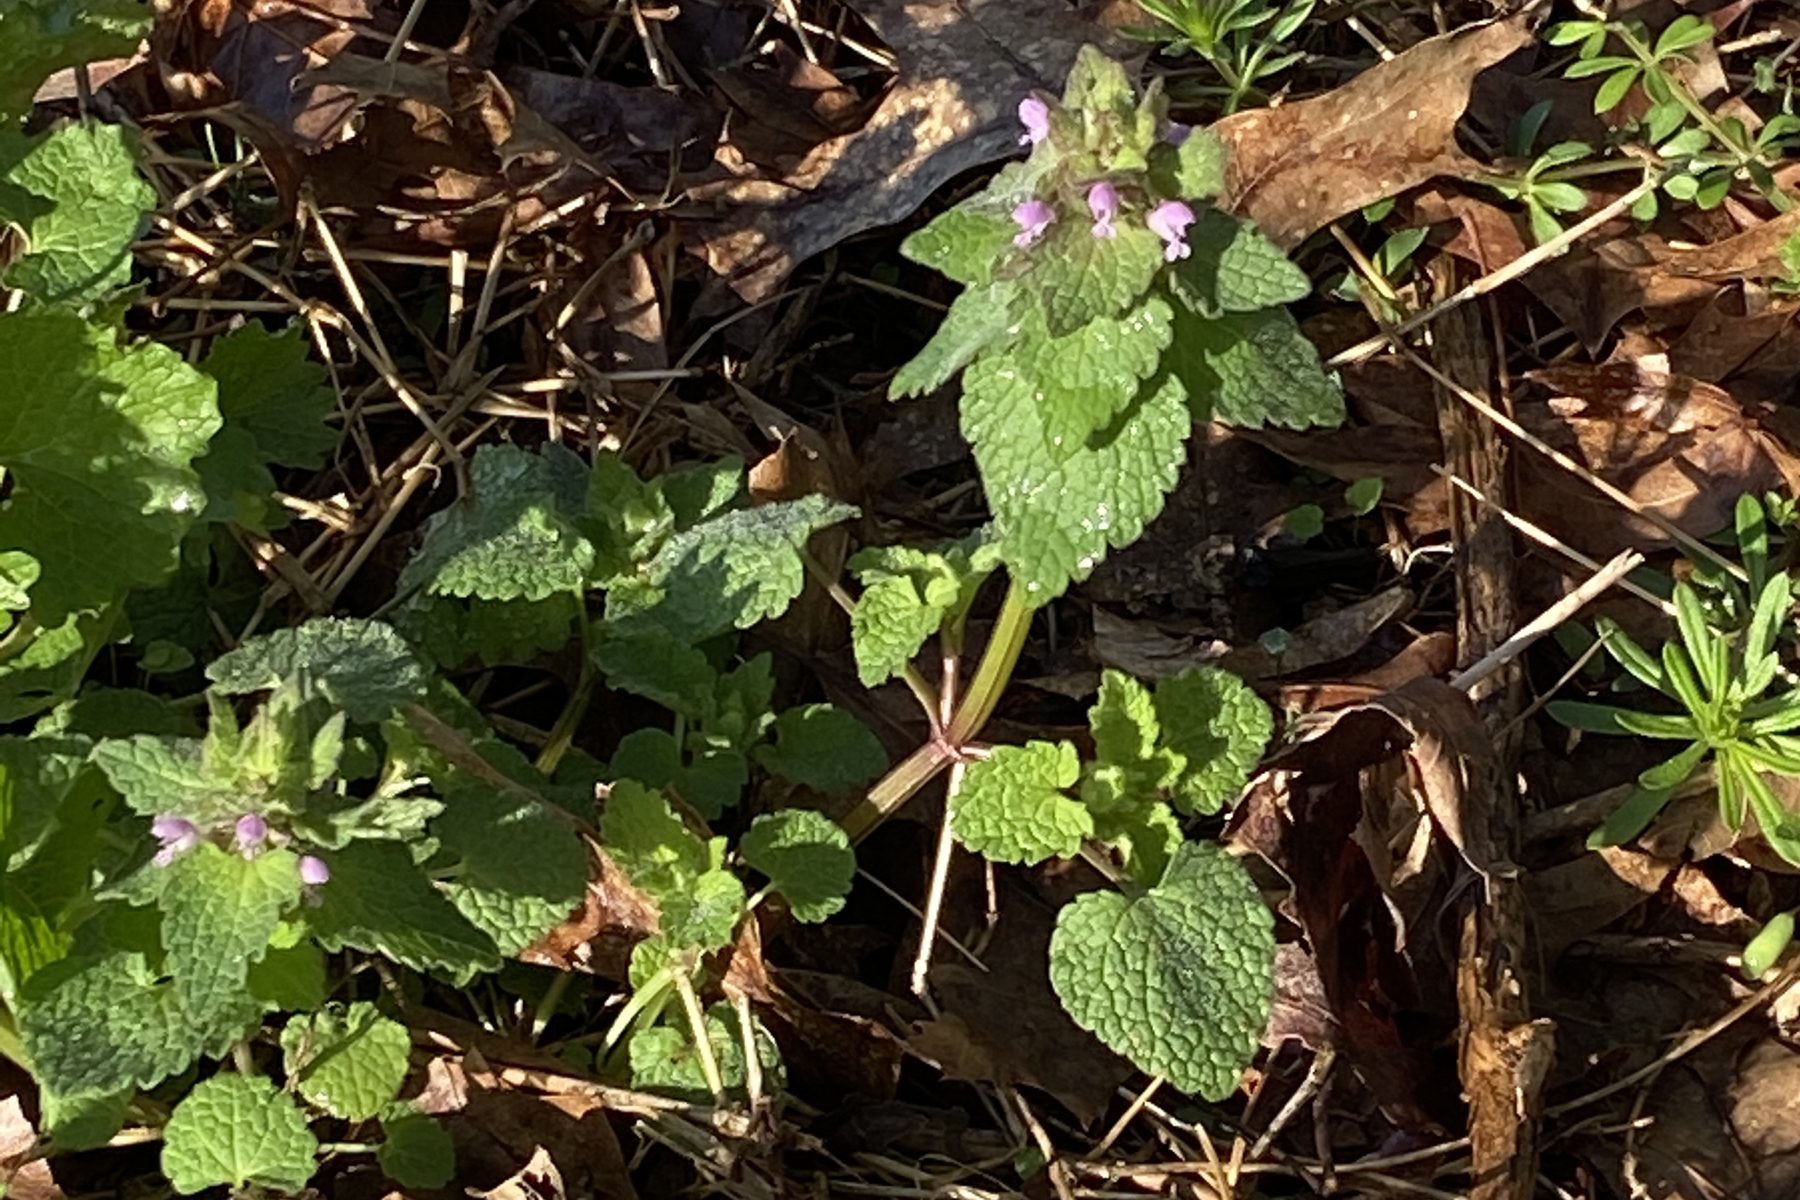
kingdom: Plantae
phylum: Tracheophyta
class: Magnoliopsida
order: Lamiales
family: Lamiaceae
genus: Lamium
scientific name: Lamium purpureum
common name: Red dead-nettle
